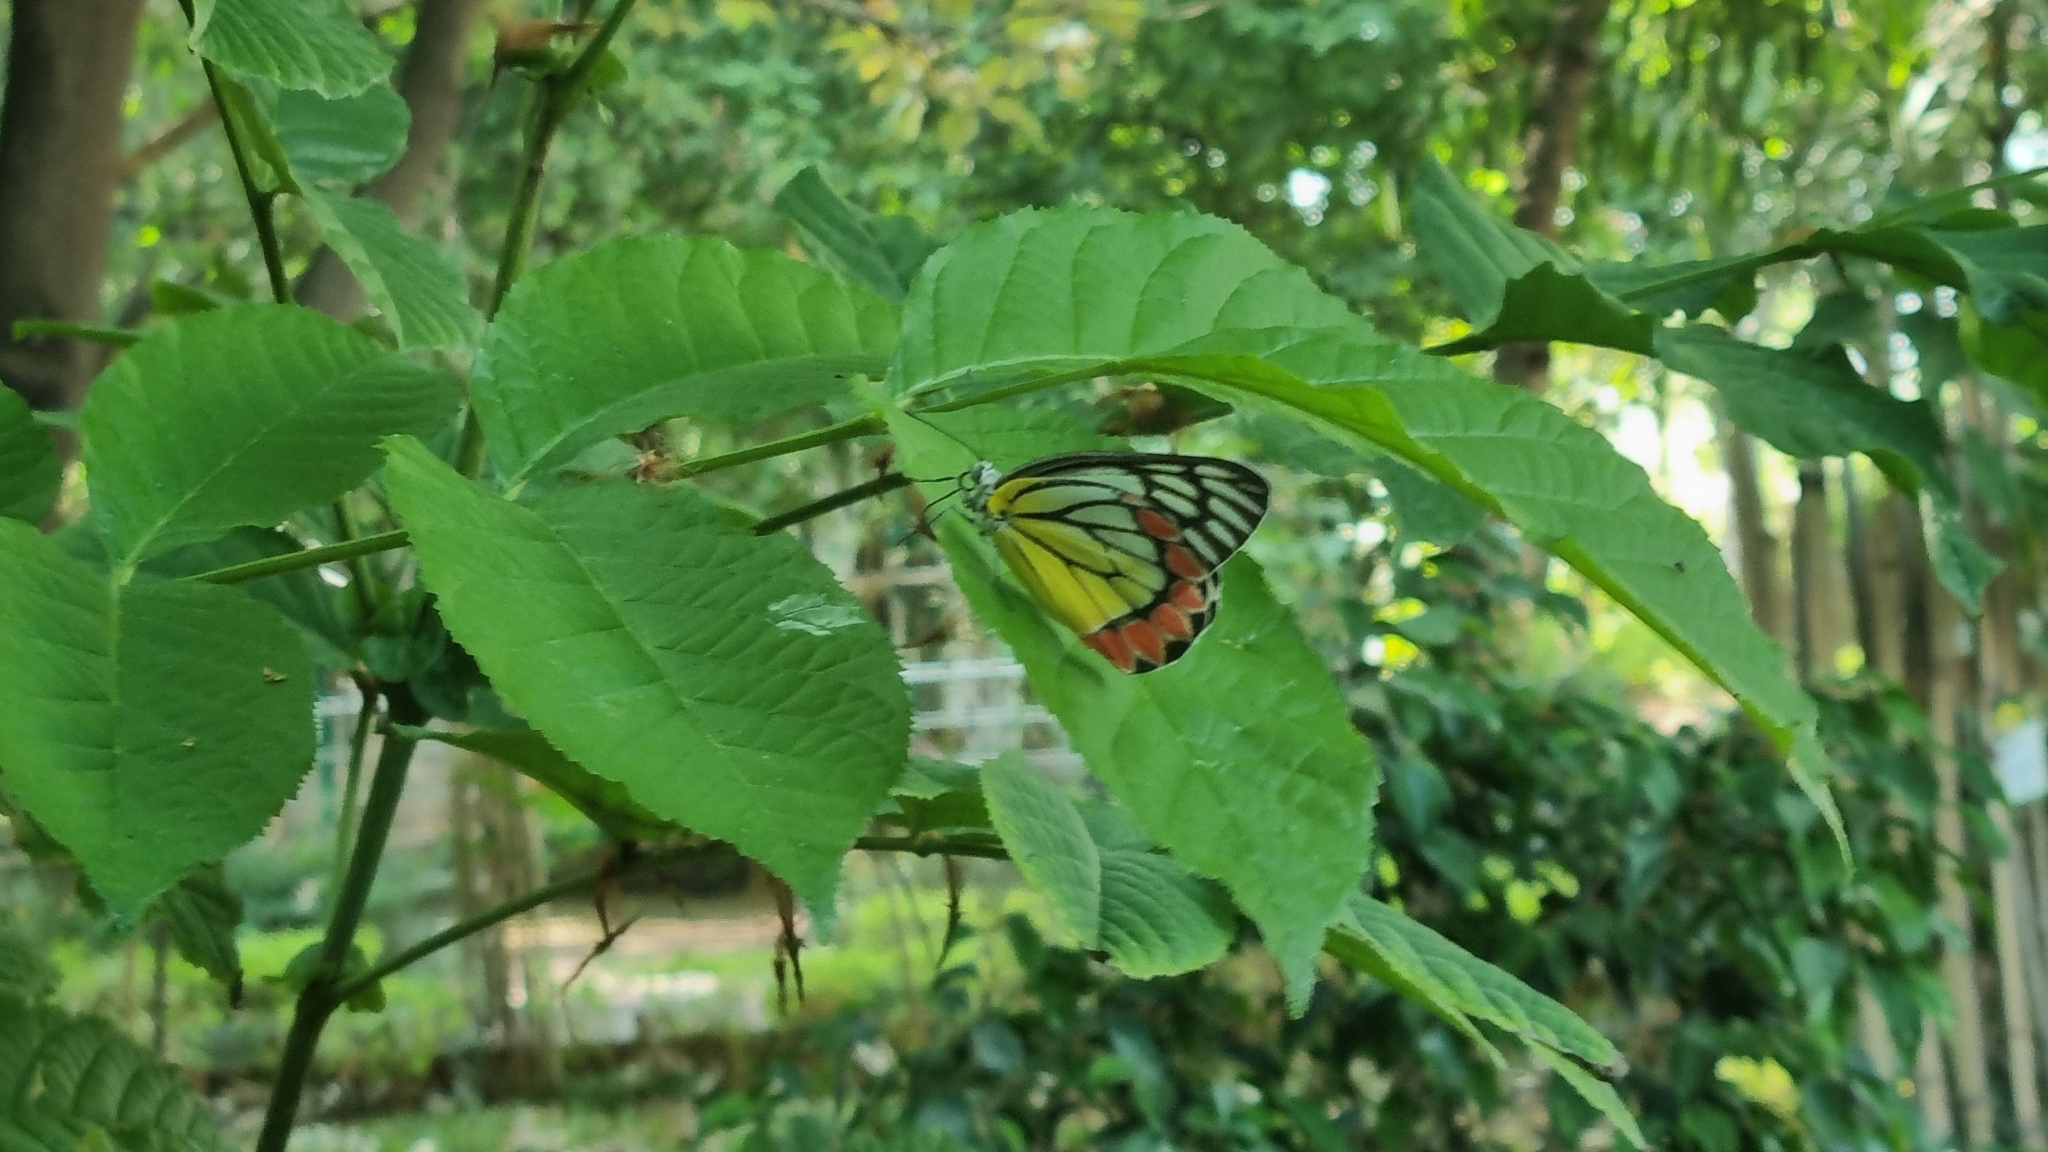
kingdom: Animalia
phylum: Arthropoda
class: Insecta
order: Lepidoptera
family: Pieridae
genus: Delias
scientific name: Delias eucharis
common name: Common jezebel
